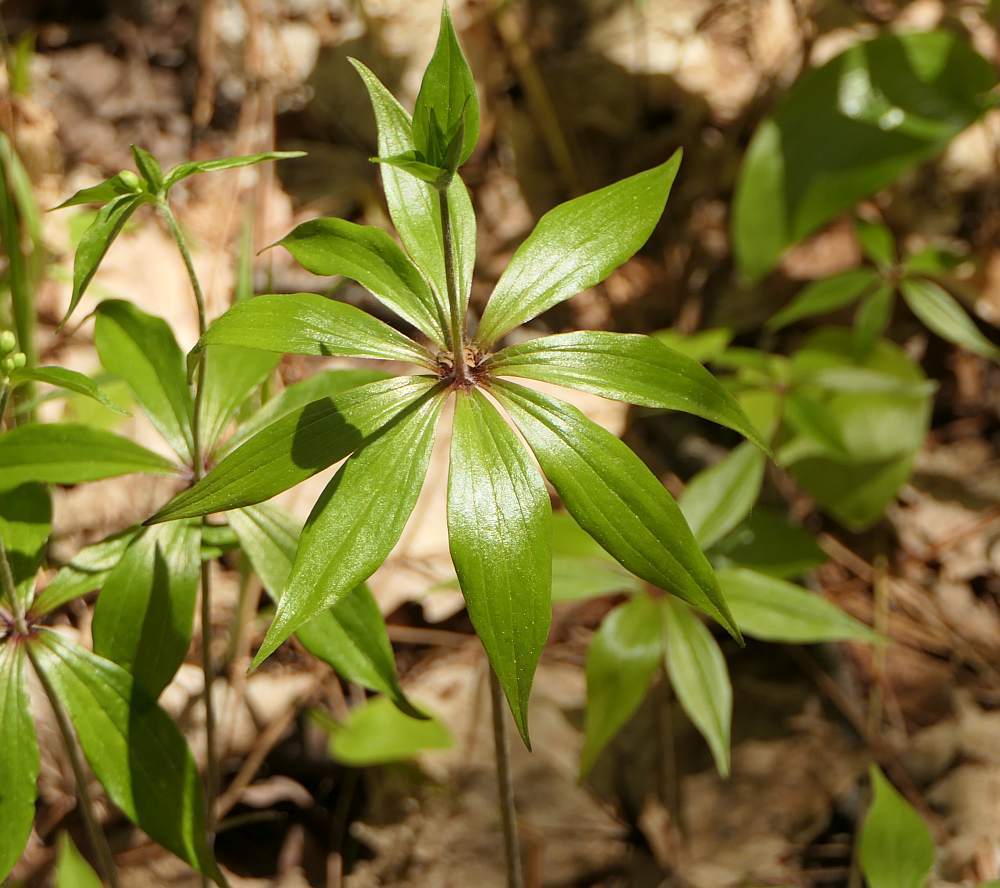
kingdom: Plantae
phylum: Tracheophyta
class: Liliopsida
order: Liliales
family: Liliaceae
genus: Medeola
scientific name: Medeola virginiana
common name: Indian cucumber-root
